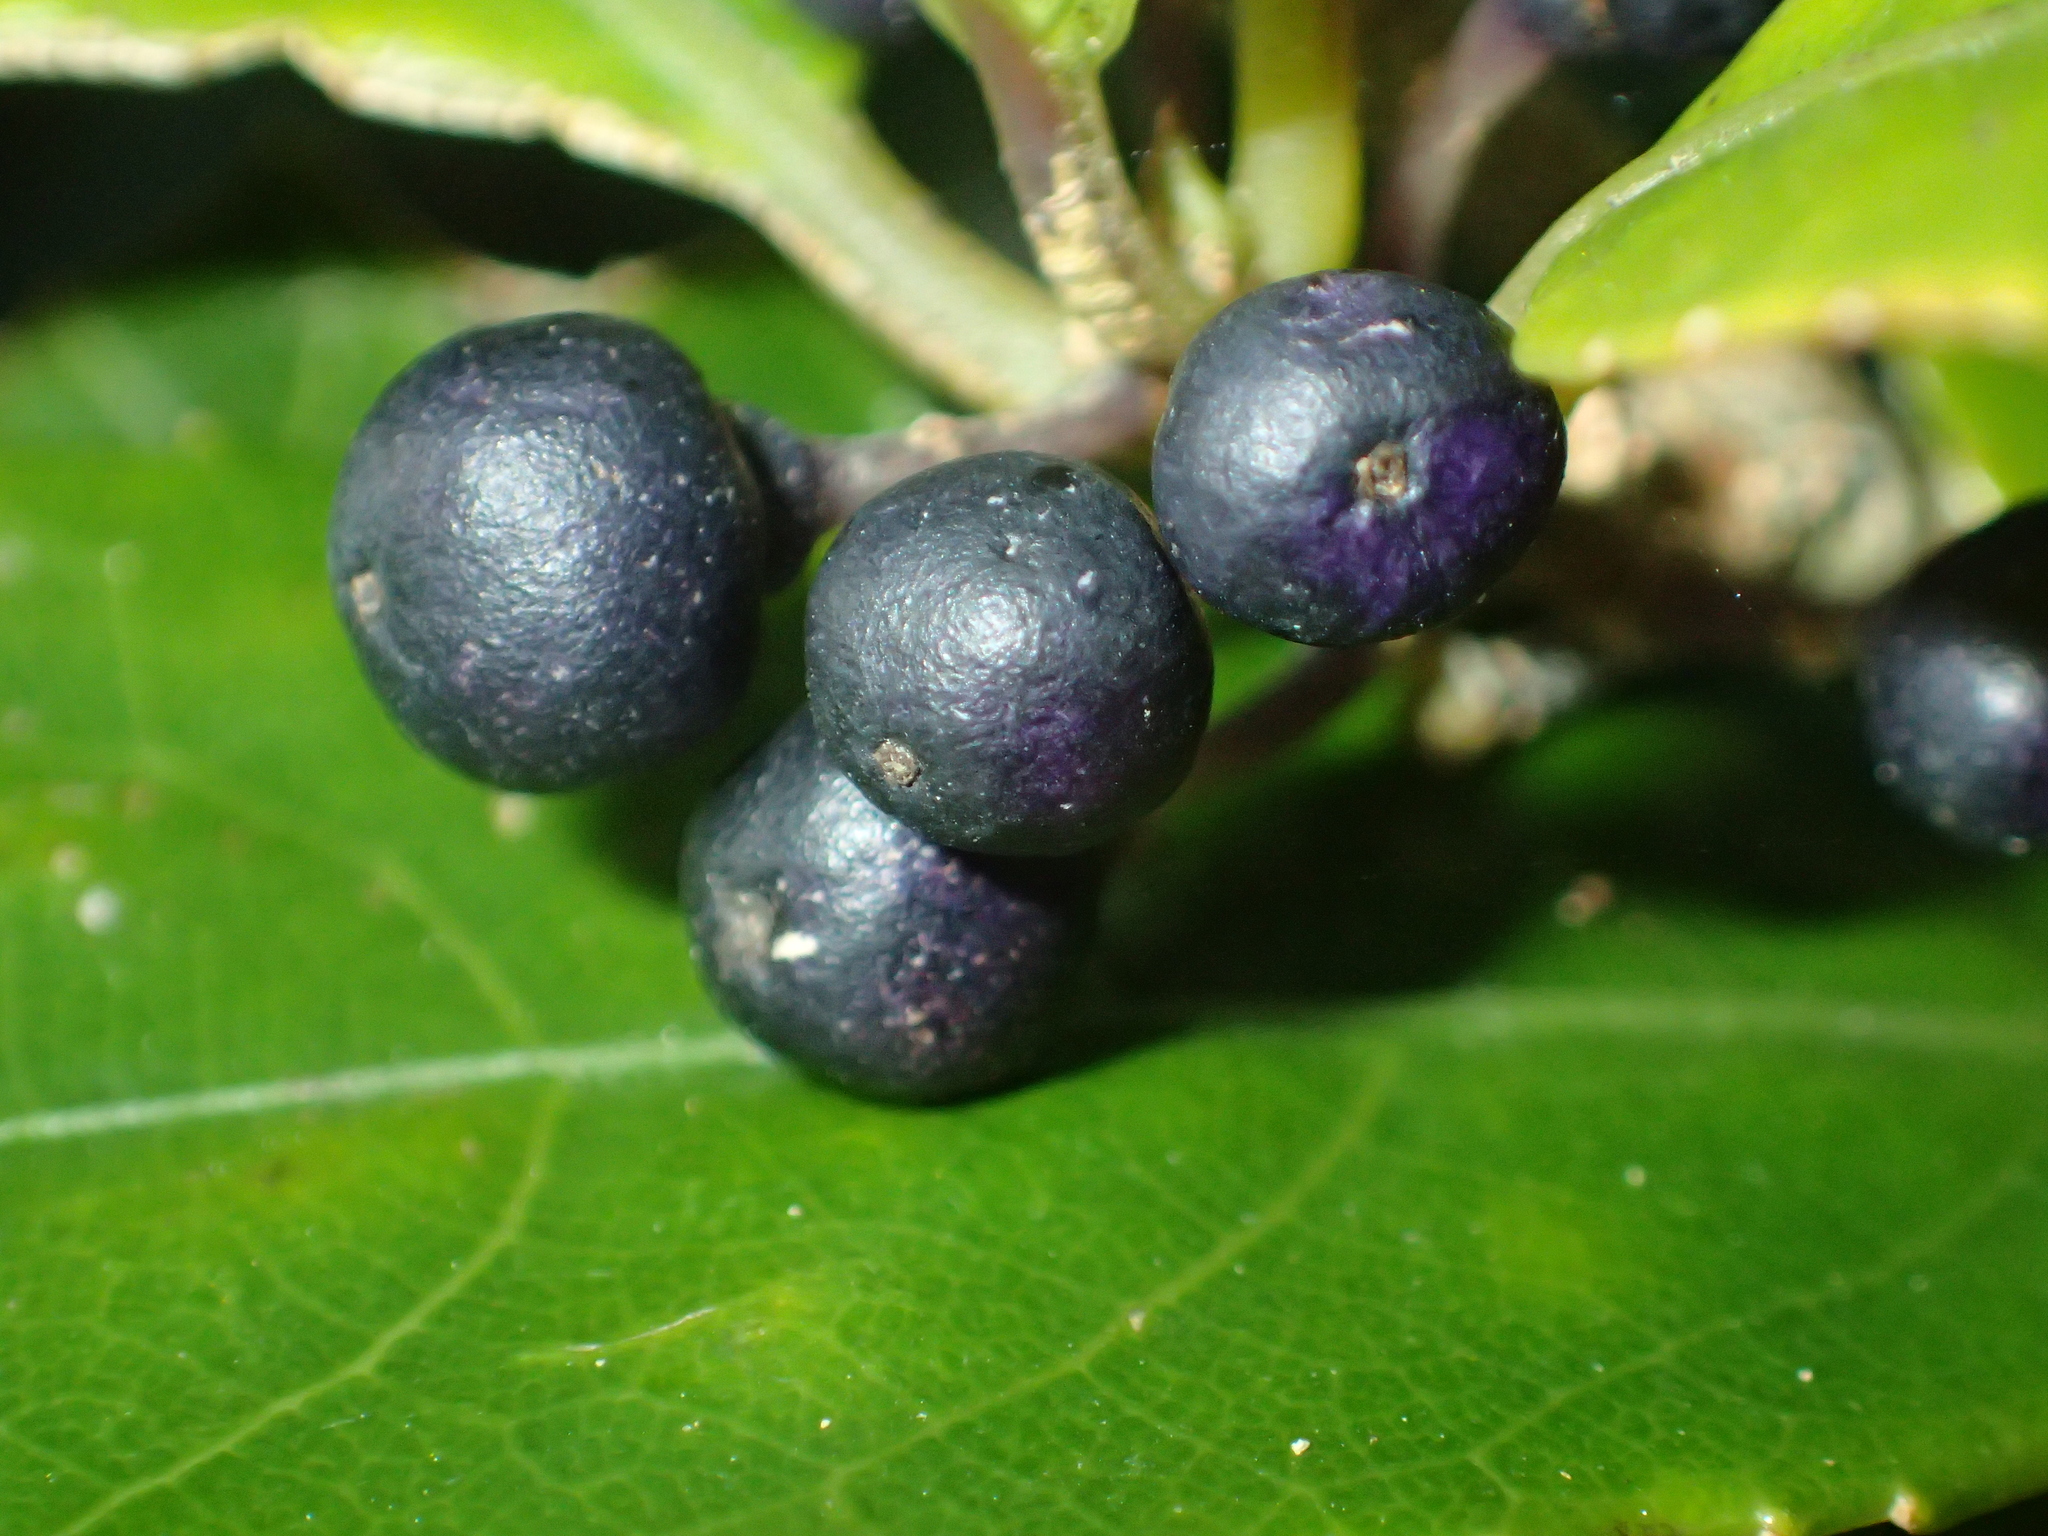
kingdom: Plantae
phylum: Tracheophyta
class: Magnoliopsida
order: Malpighiales
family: Violaceae
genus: Melicytus
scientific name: Melicytus ramiflorus
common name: Mahoe
